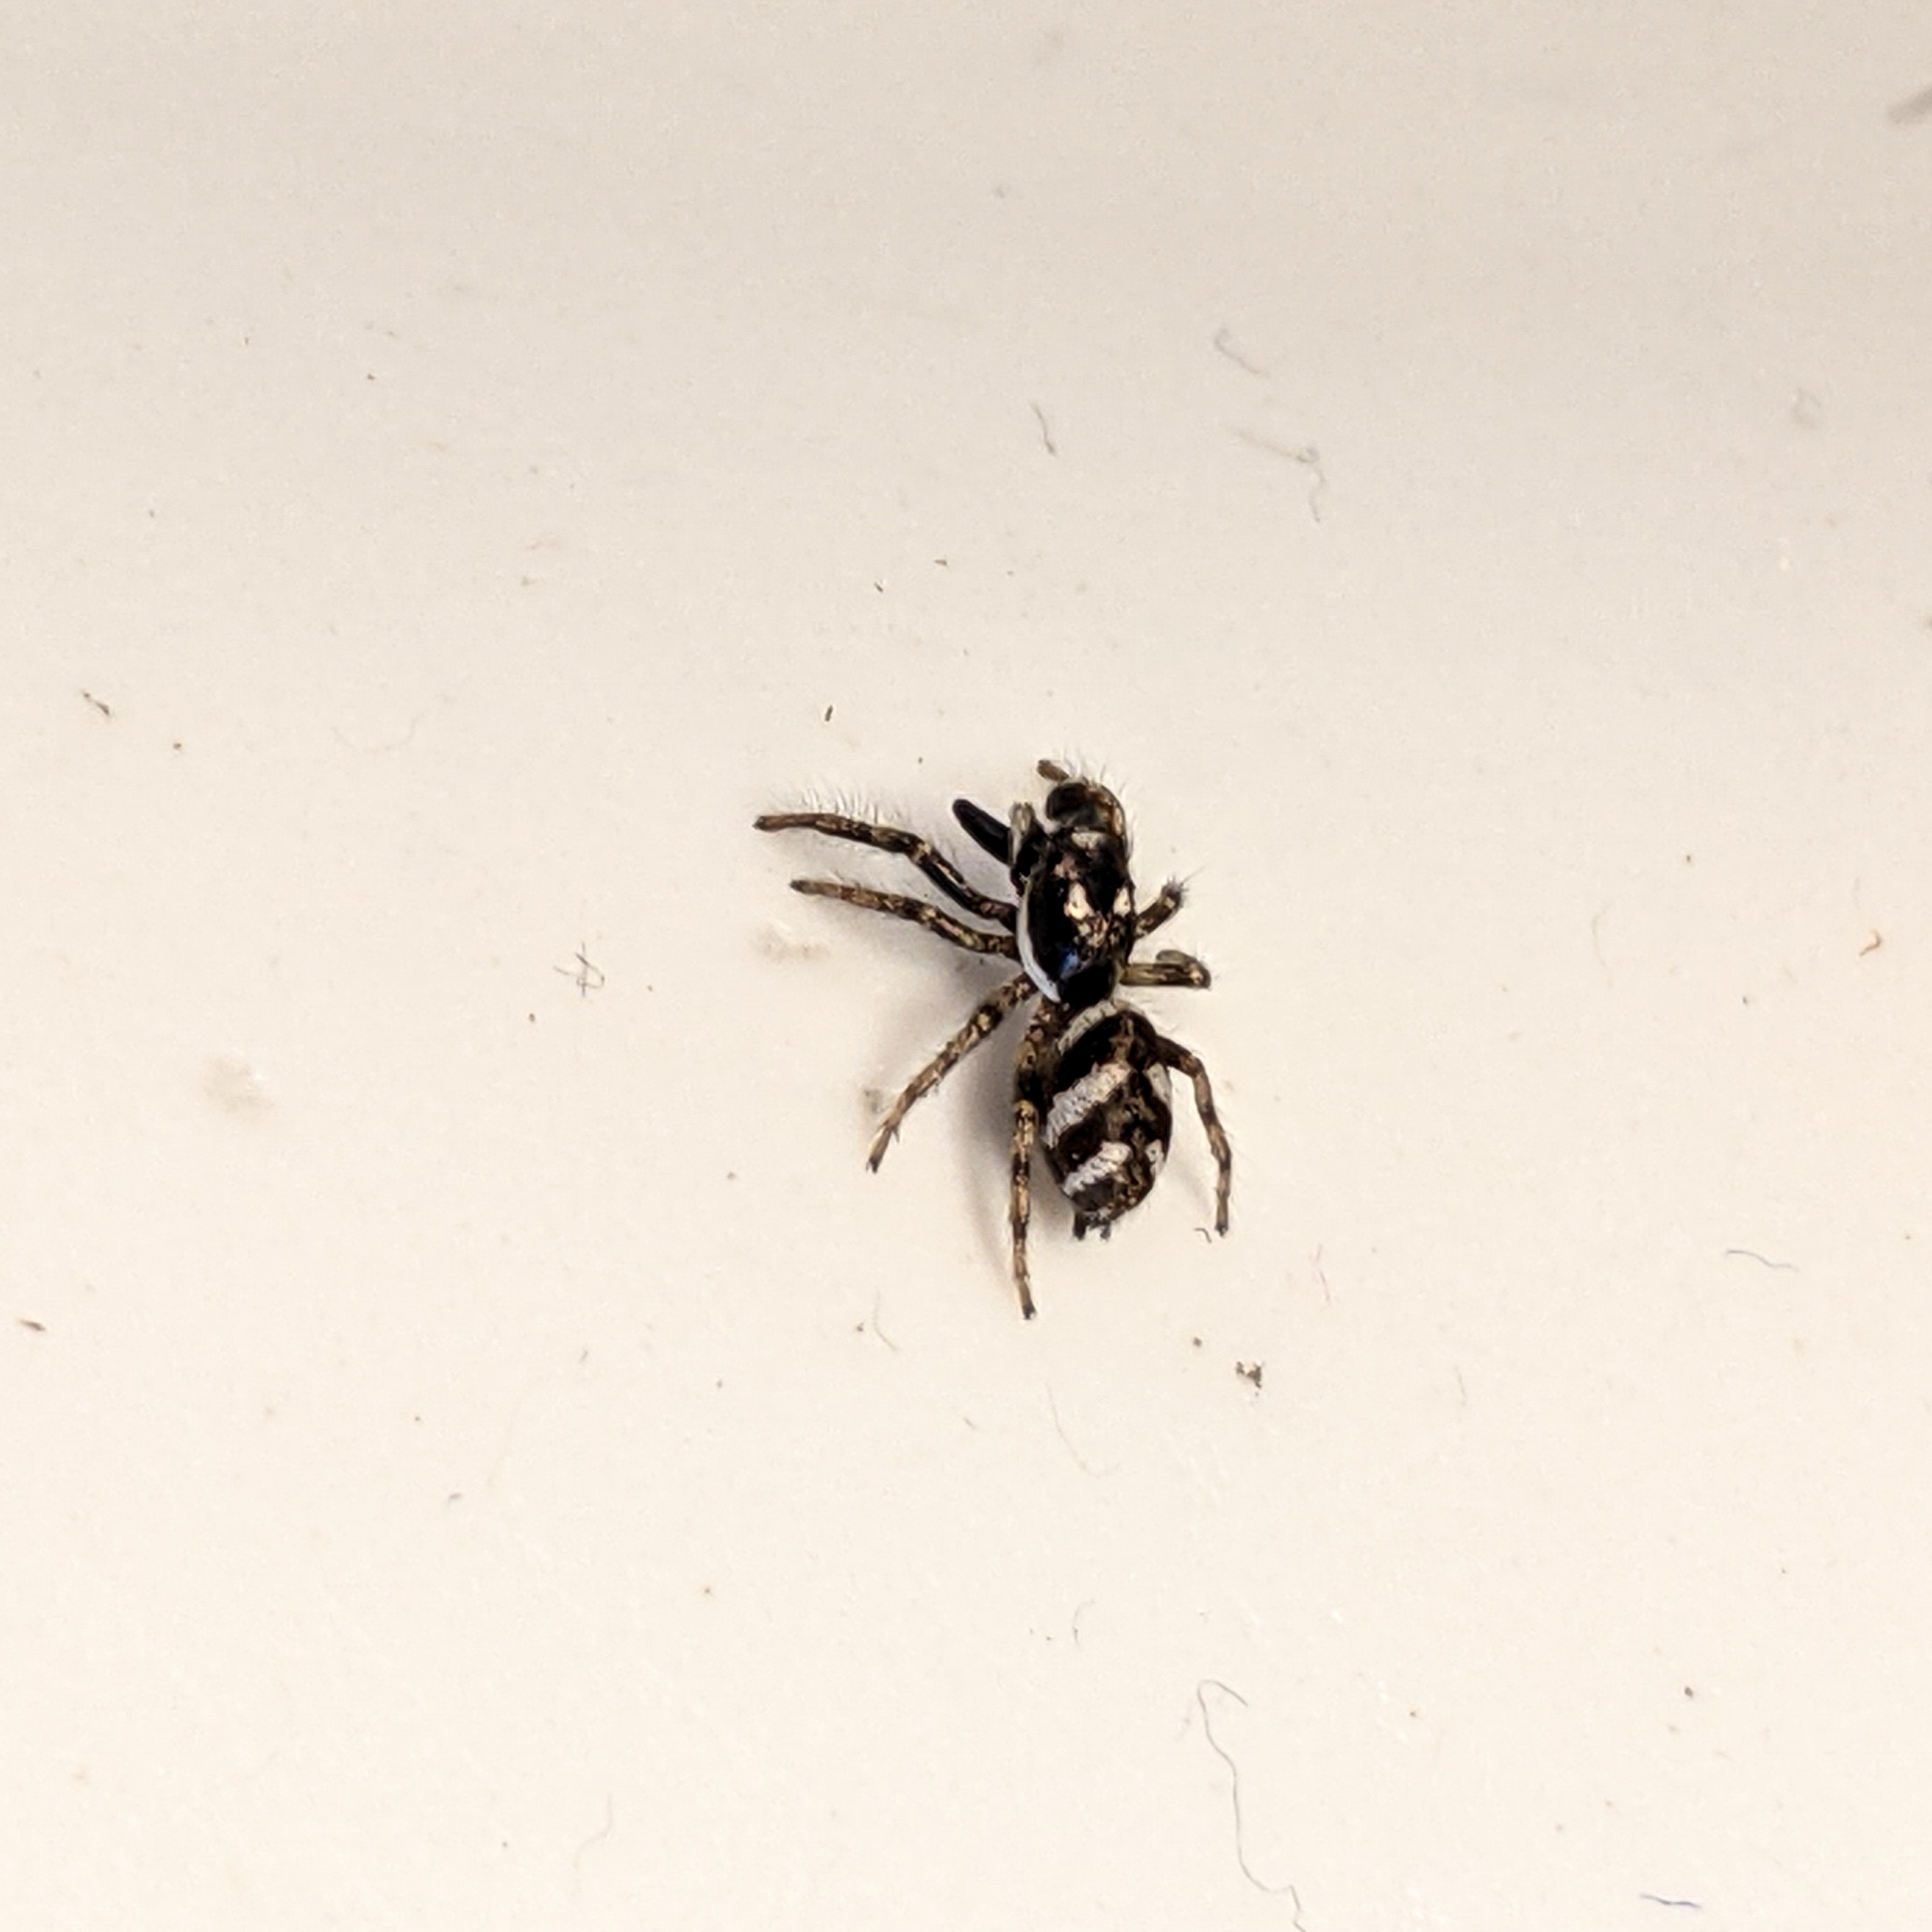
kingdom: Animalia
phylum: Arthropoda
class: Arachnida
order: Araneae
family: Salticidae
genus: Salticus
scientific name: Salticus scenicus
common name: Zebra jumper
